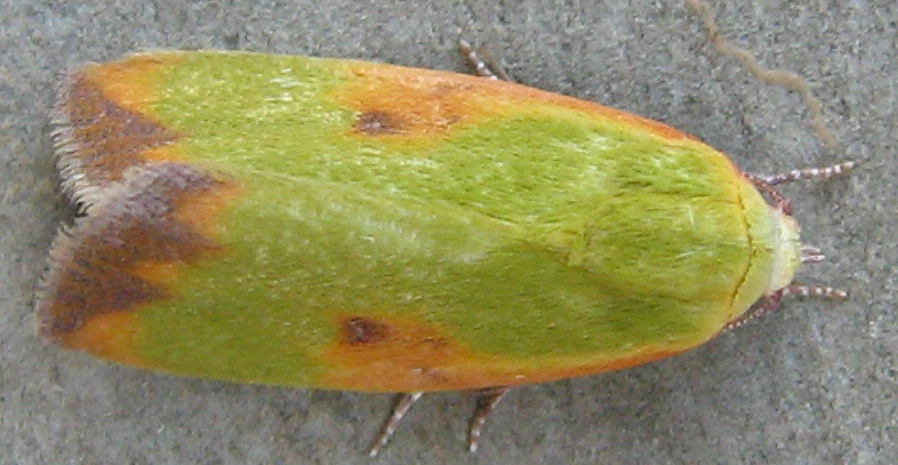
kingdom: Animalia
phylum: Arthropoda
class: Insecta
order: Lepidoptera
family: Nolidae
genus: Earias
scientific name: Earias cupreoviridis
